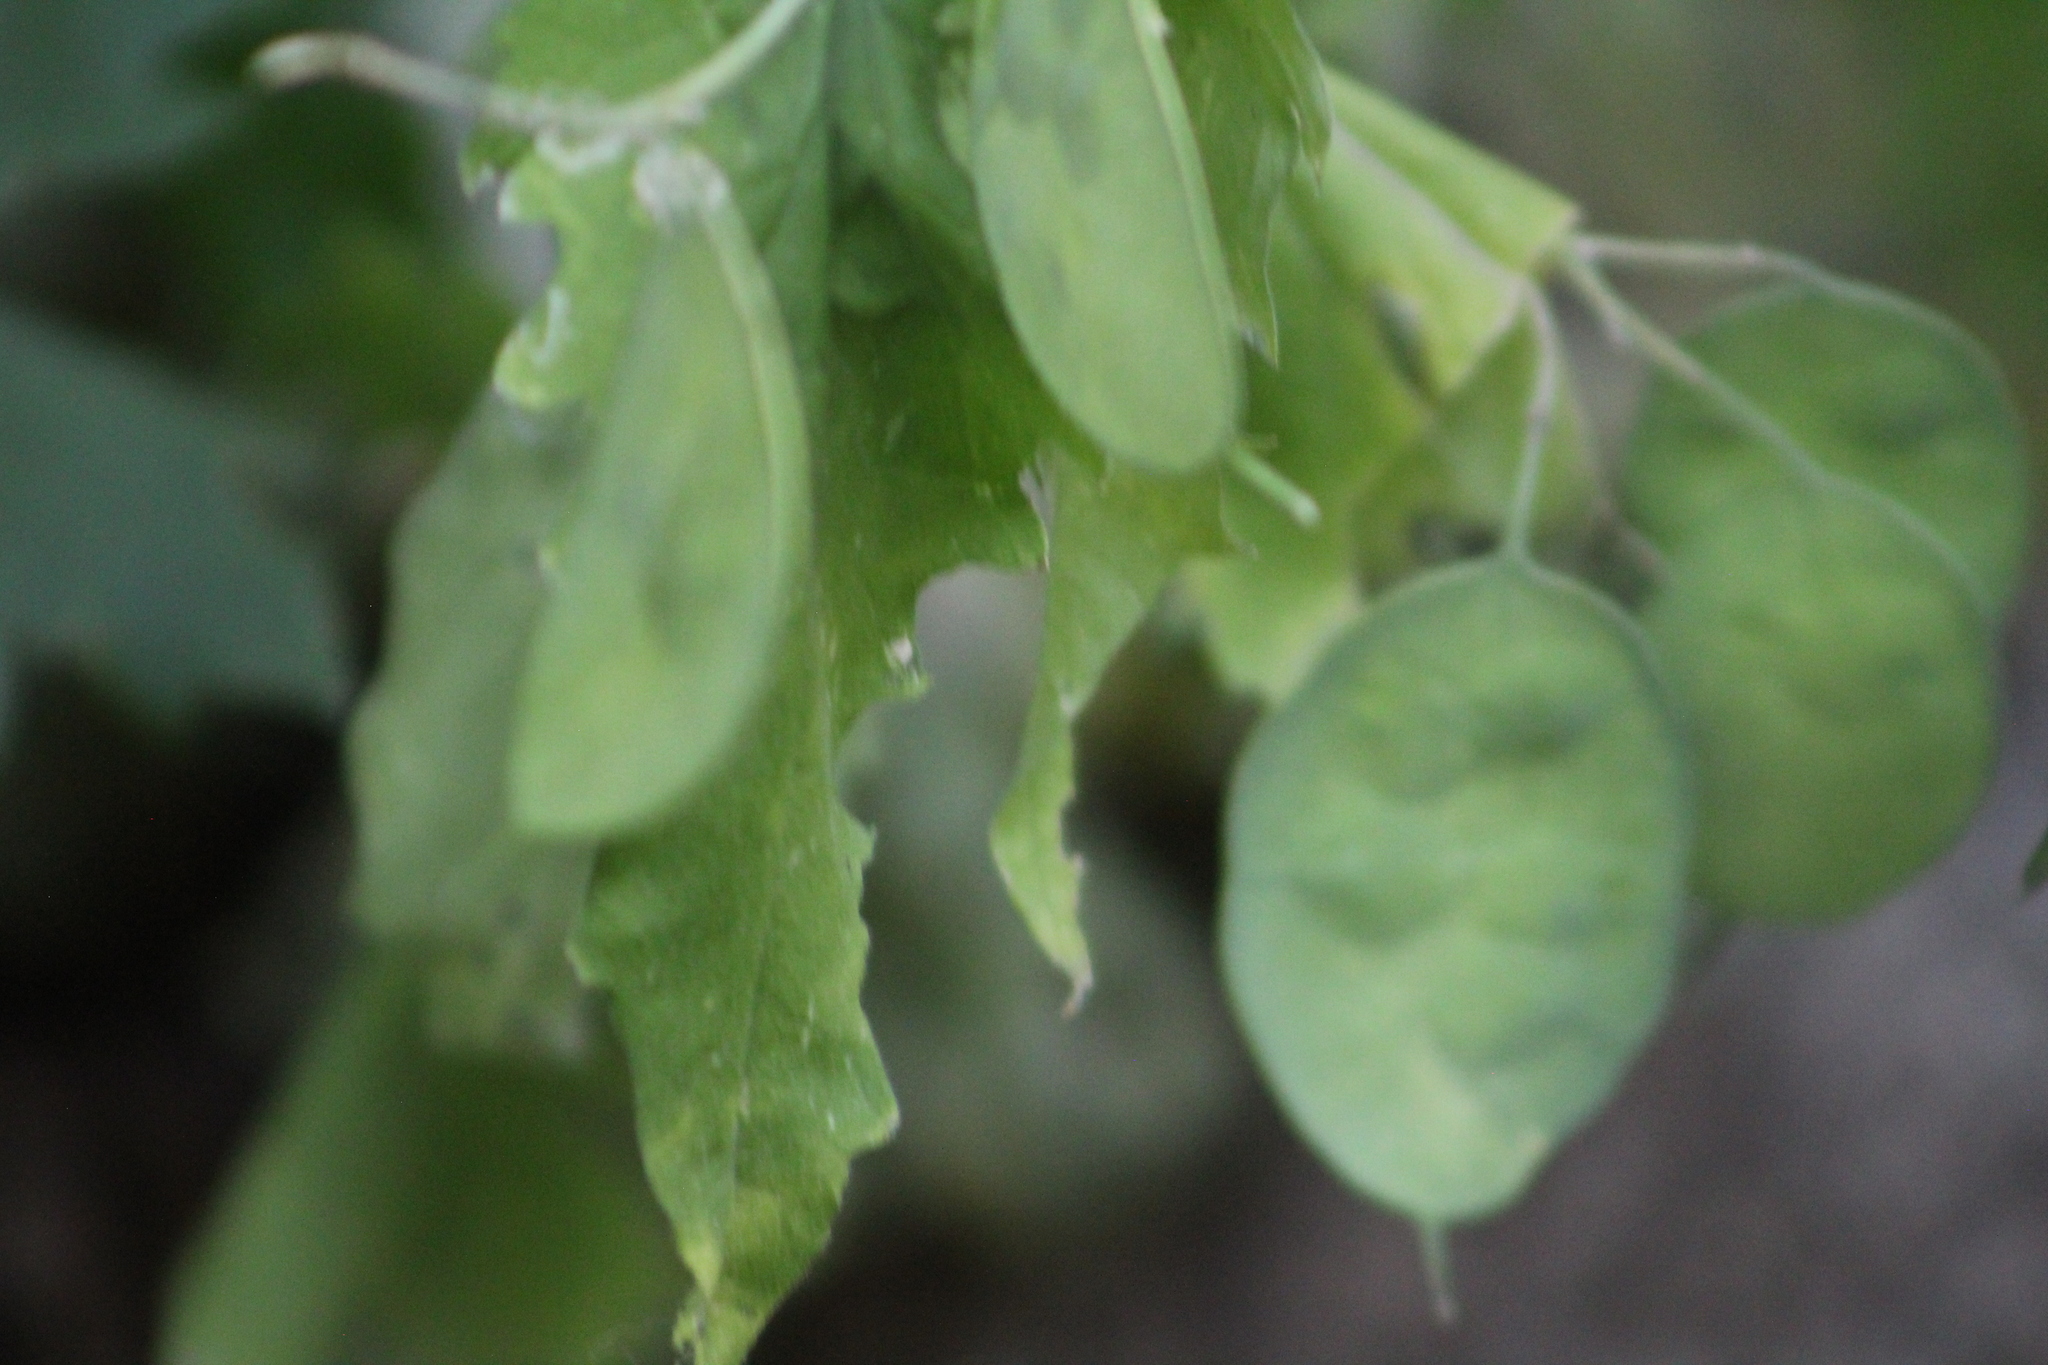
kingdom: Plantae
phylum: Tracheophyta
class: Magnoliopsida
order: Brassicales
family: Brassicaceae
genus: Lunaria
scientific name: Lunaria annua
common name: Honesty
